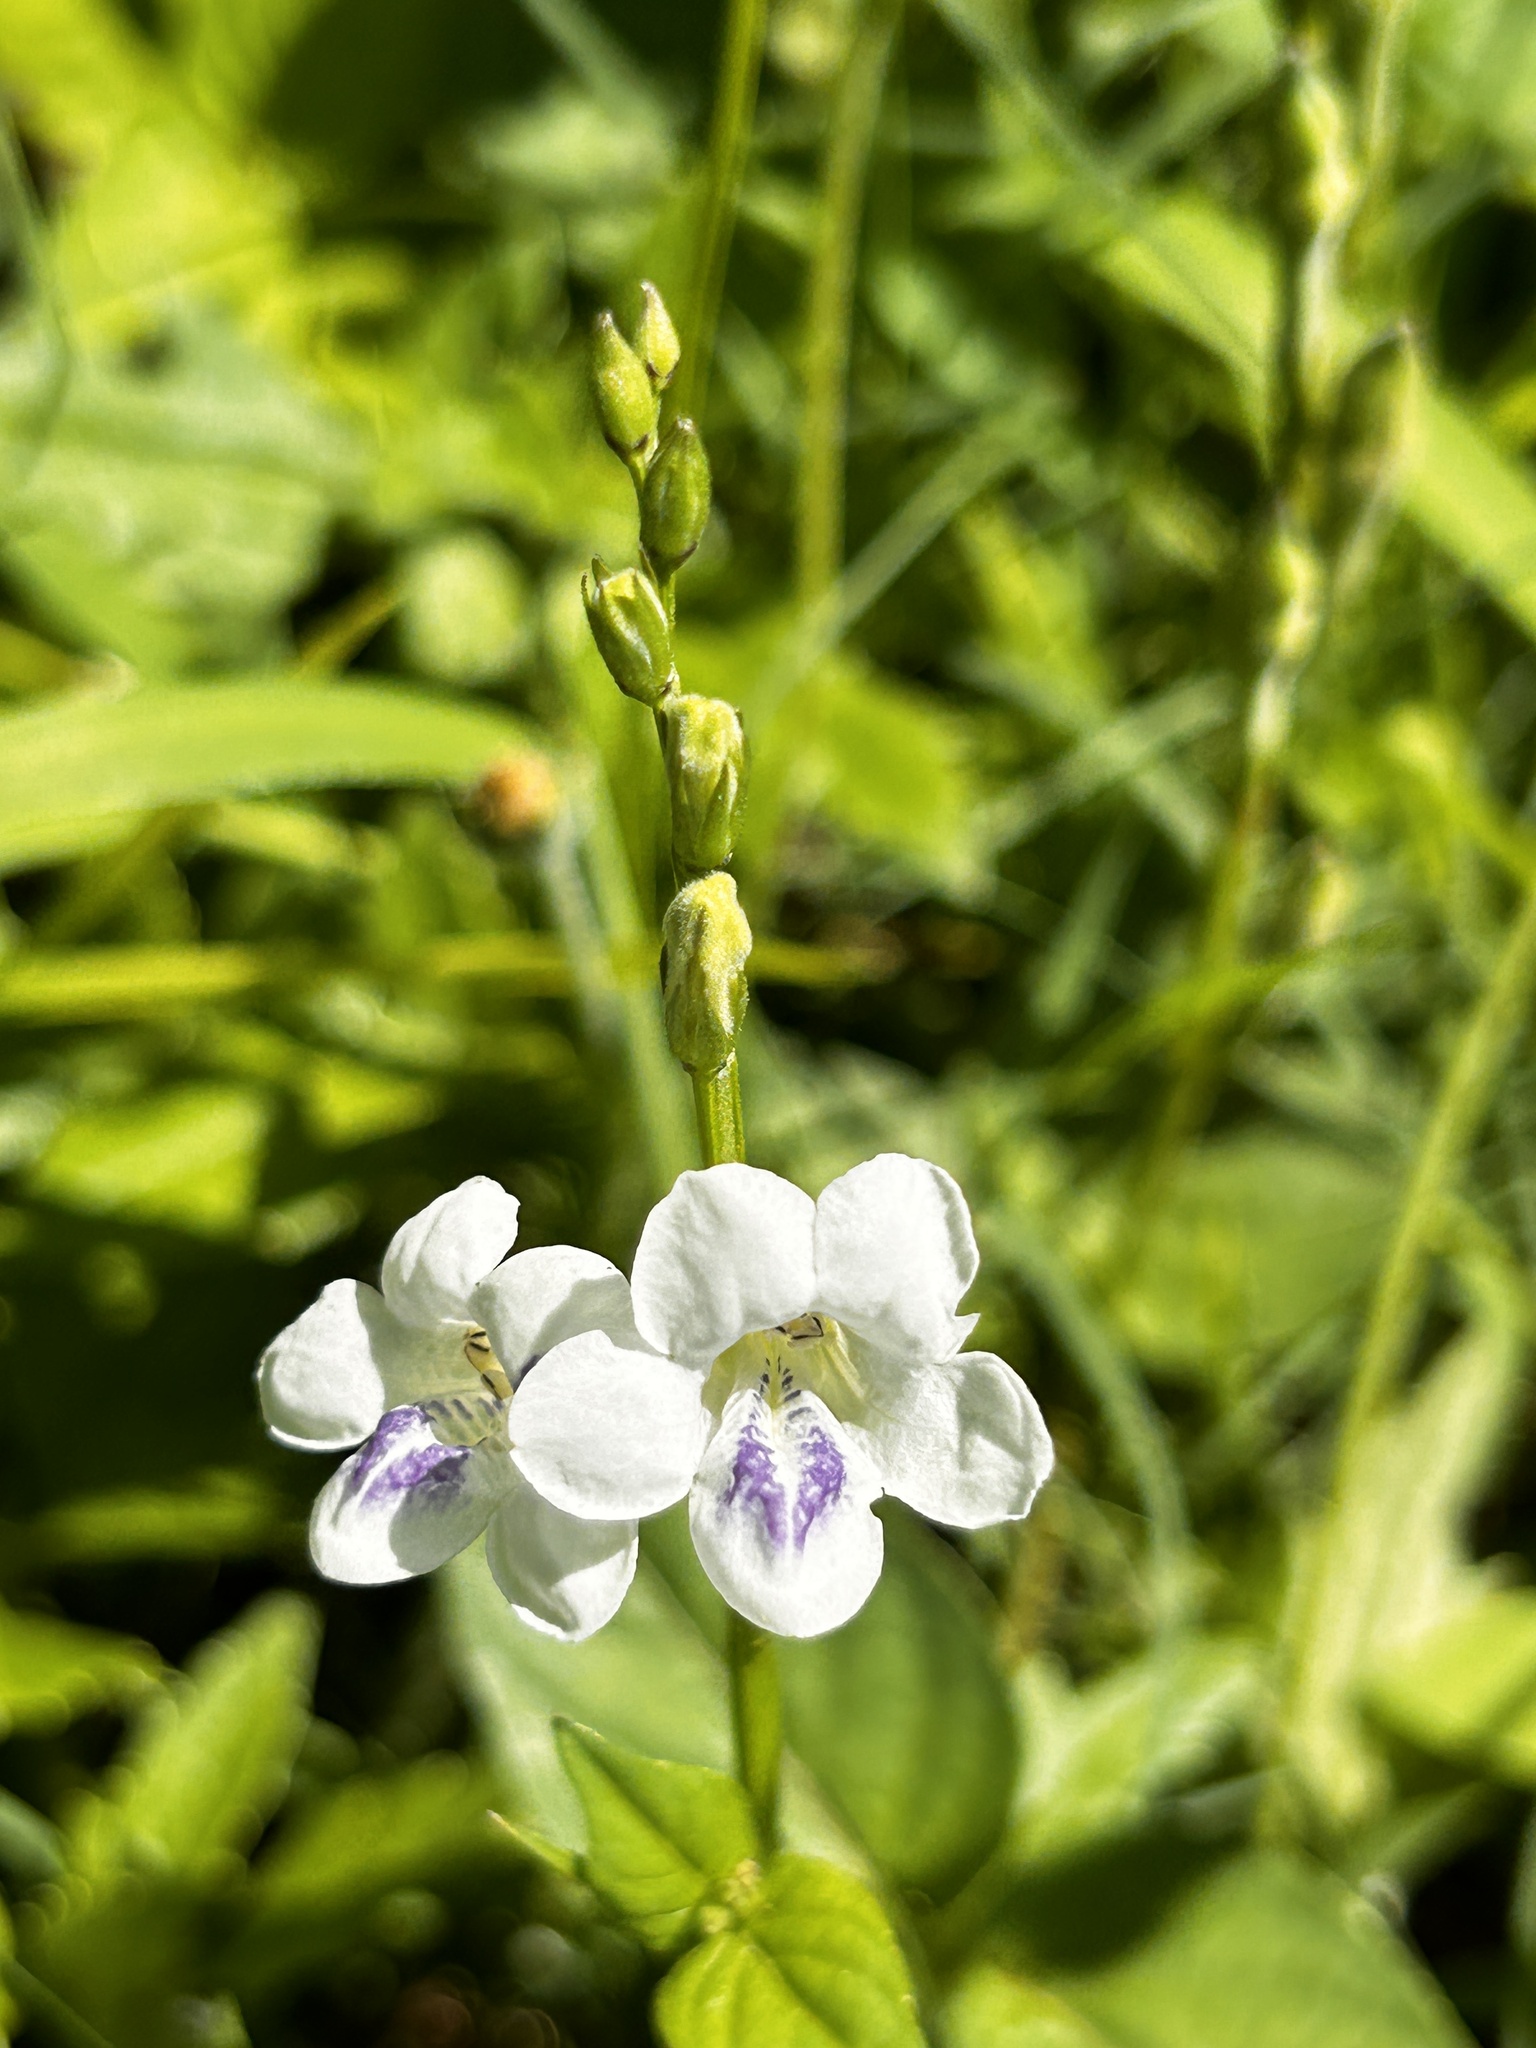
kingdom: Plantae
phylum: Tracheophyta
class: Magnoliopsida
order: Lamiales
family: Acanthaceae
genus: Asystasia
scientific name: Asystasia intrusa
